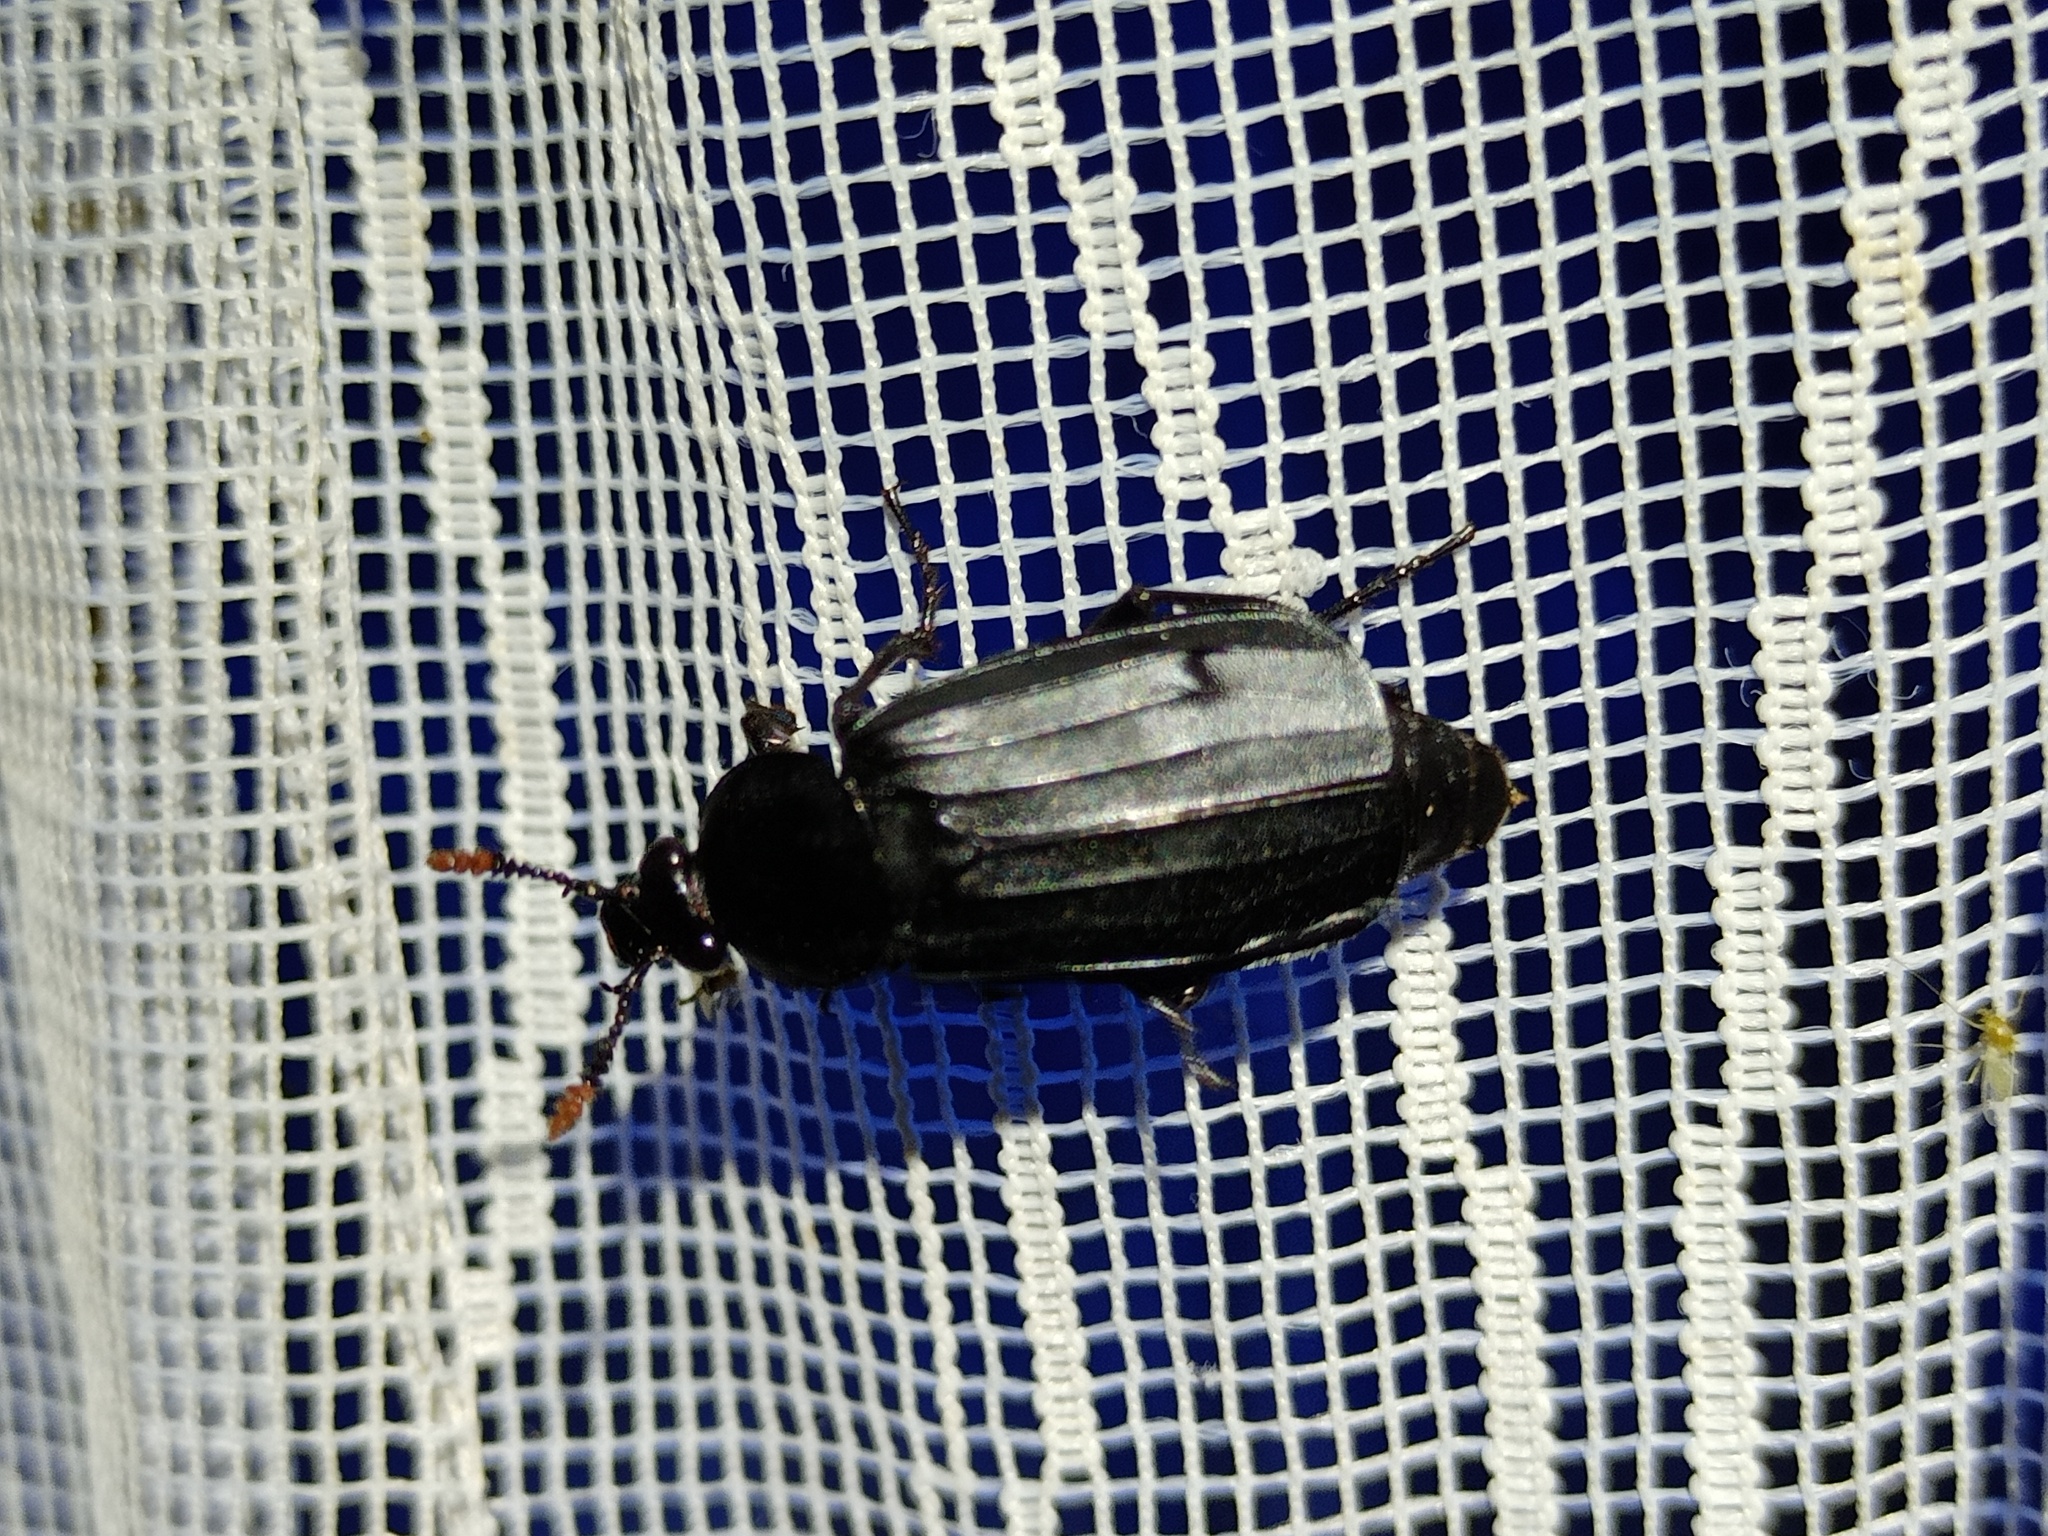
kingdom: Animalia
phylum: Arthropoda
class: Insecta
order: Coleoptera
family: Staphylinidae
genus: Necrodes
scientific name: Necrodes littoralis
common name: Shore sexton beetle
